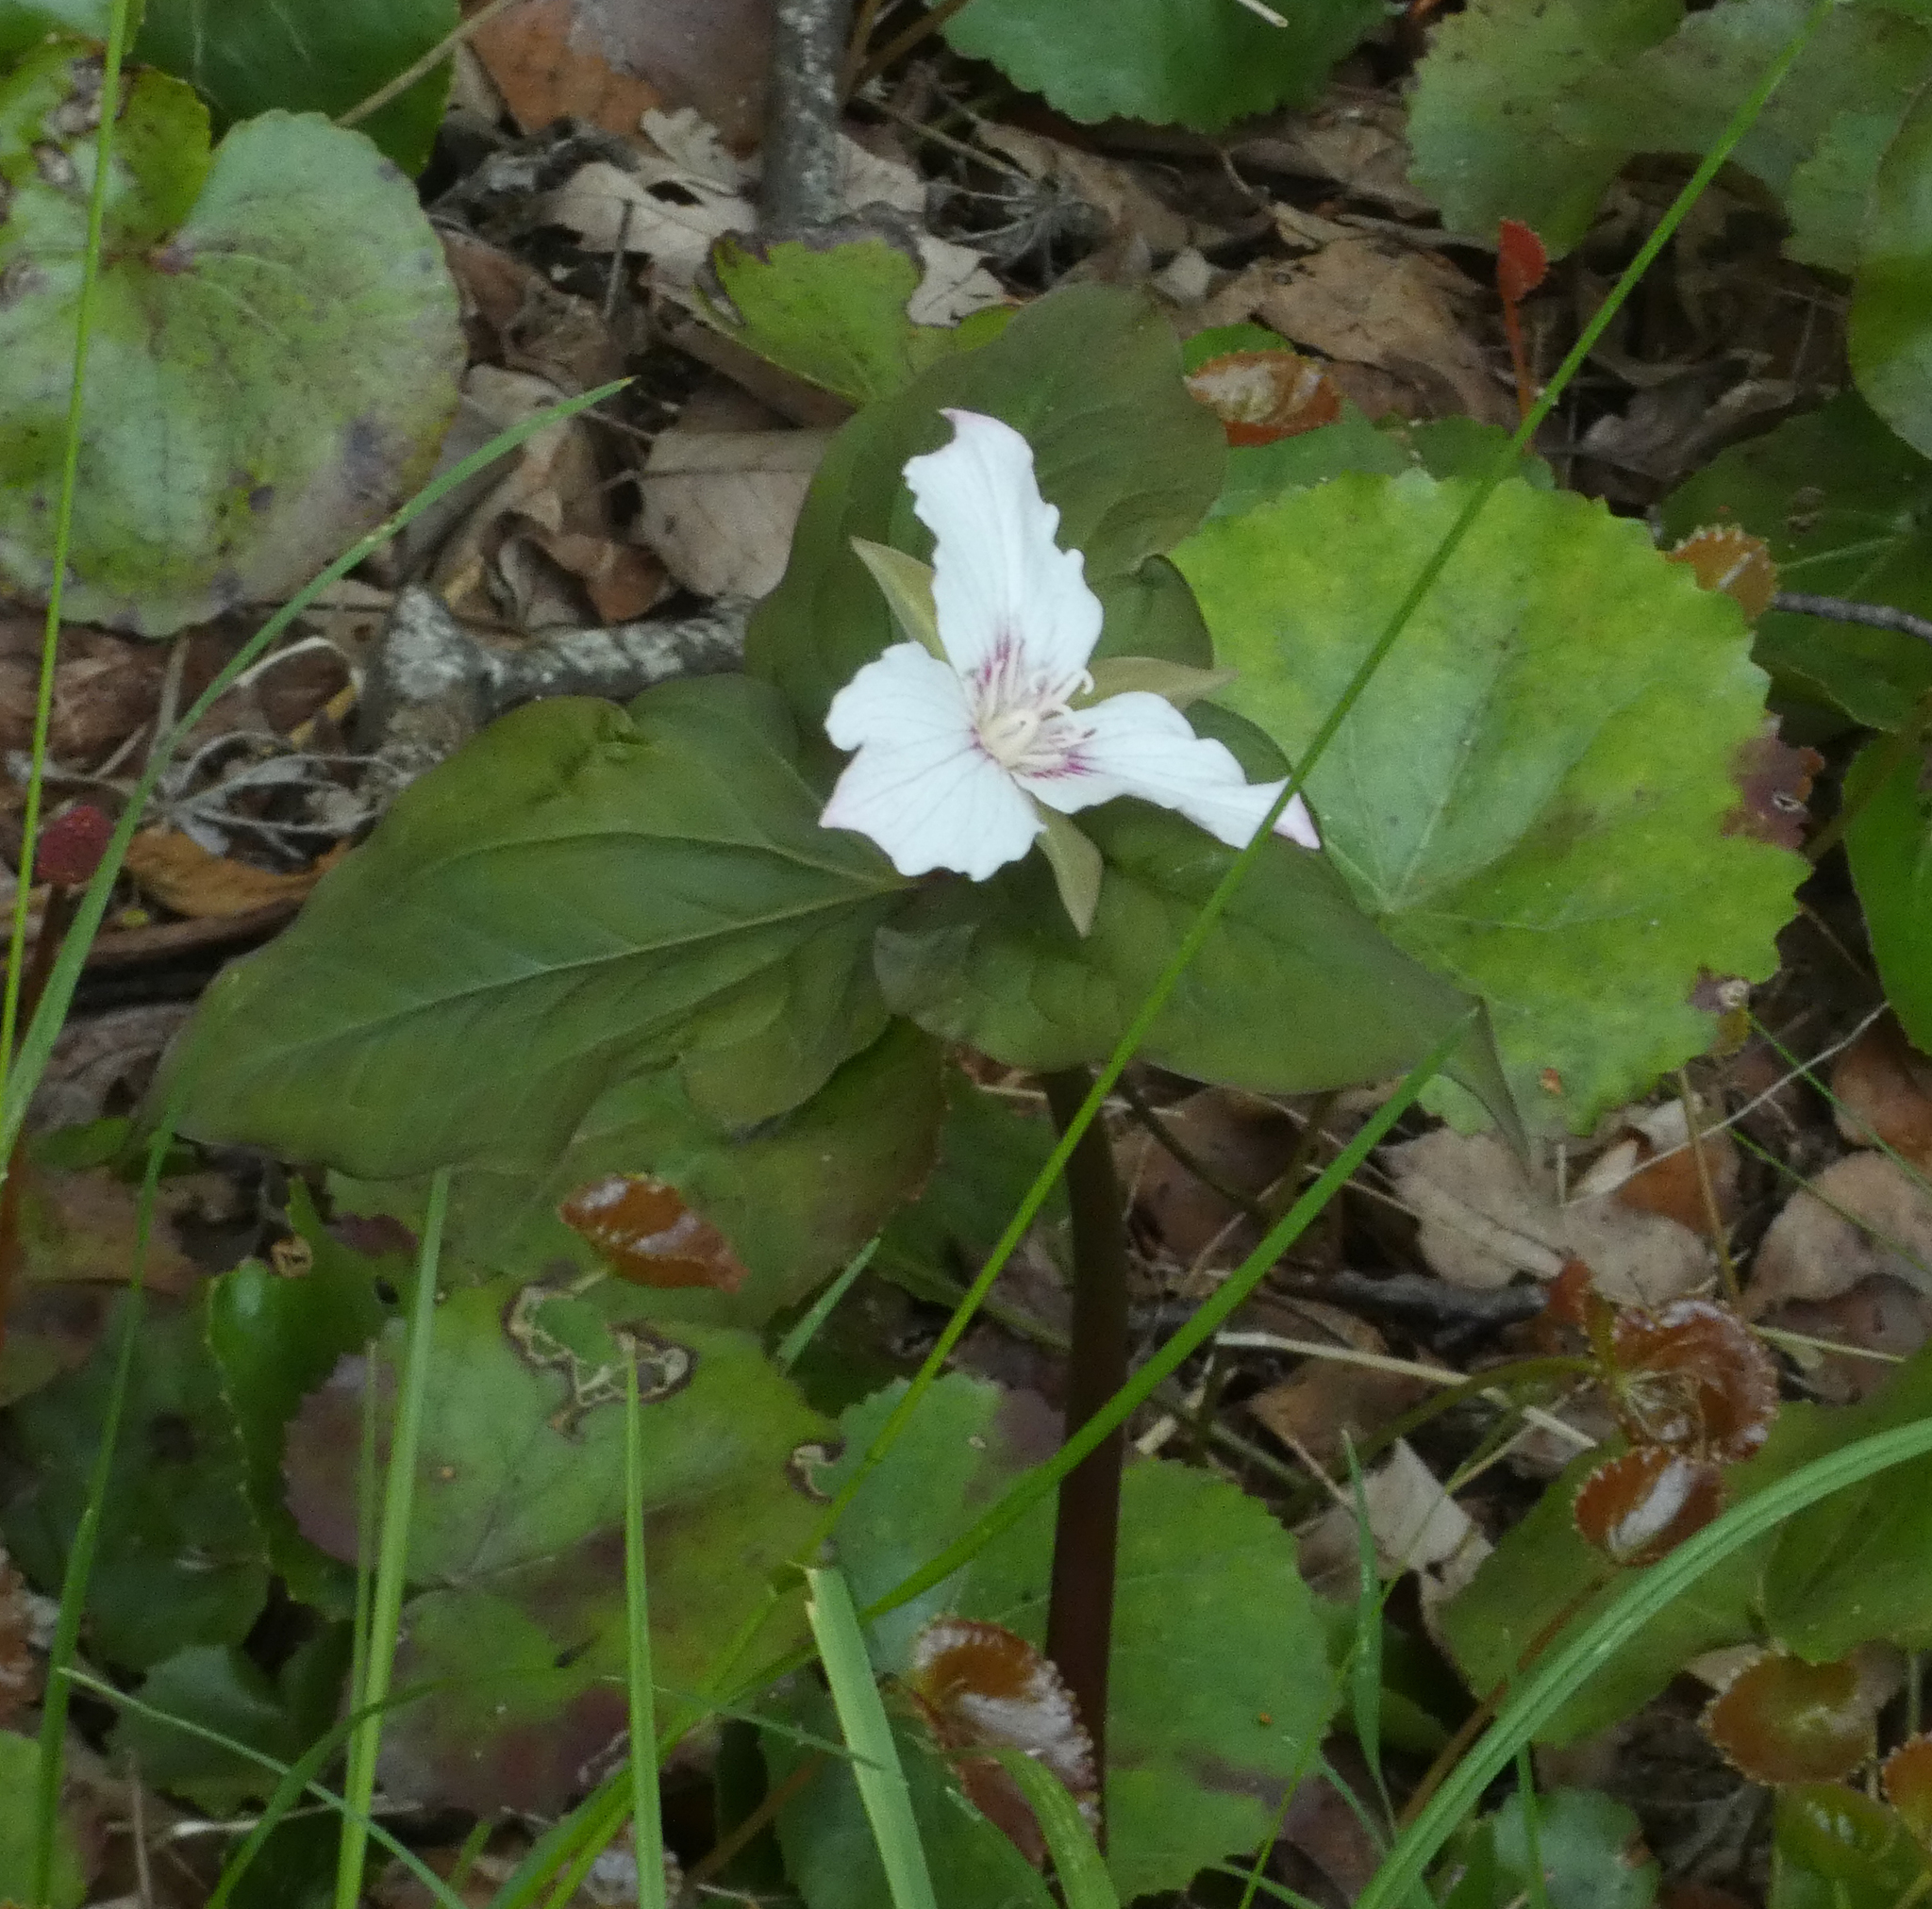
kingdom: Plantae
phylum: Tracheophyta
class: Liliopsida
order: Liliales
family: Melanthiaceae
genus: Trillium
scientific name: Trillium undulatum
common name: Paint trillium
